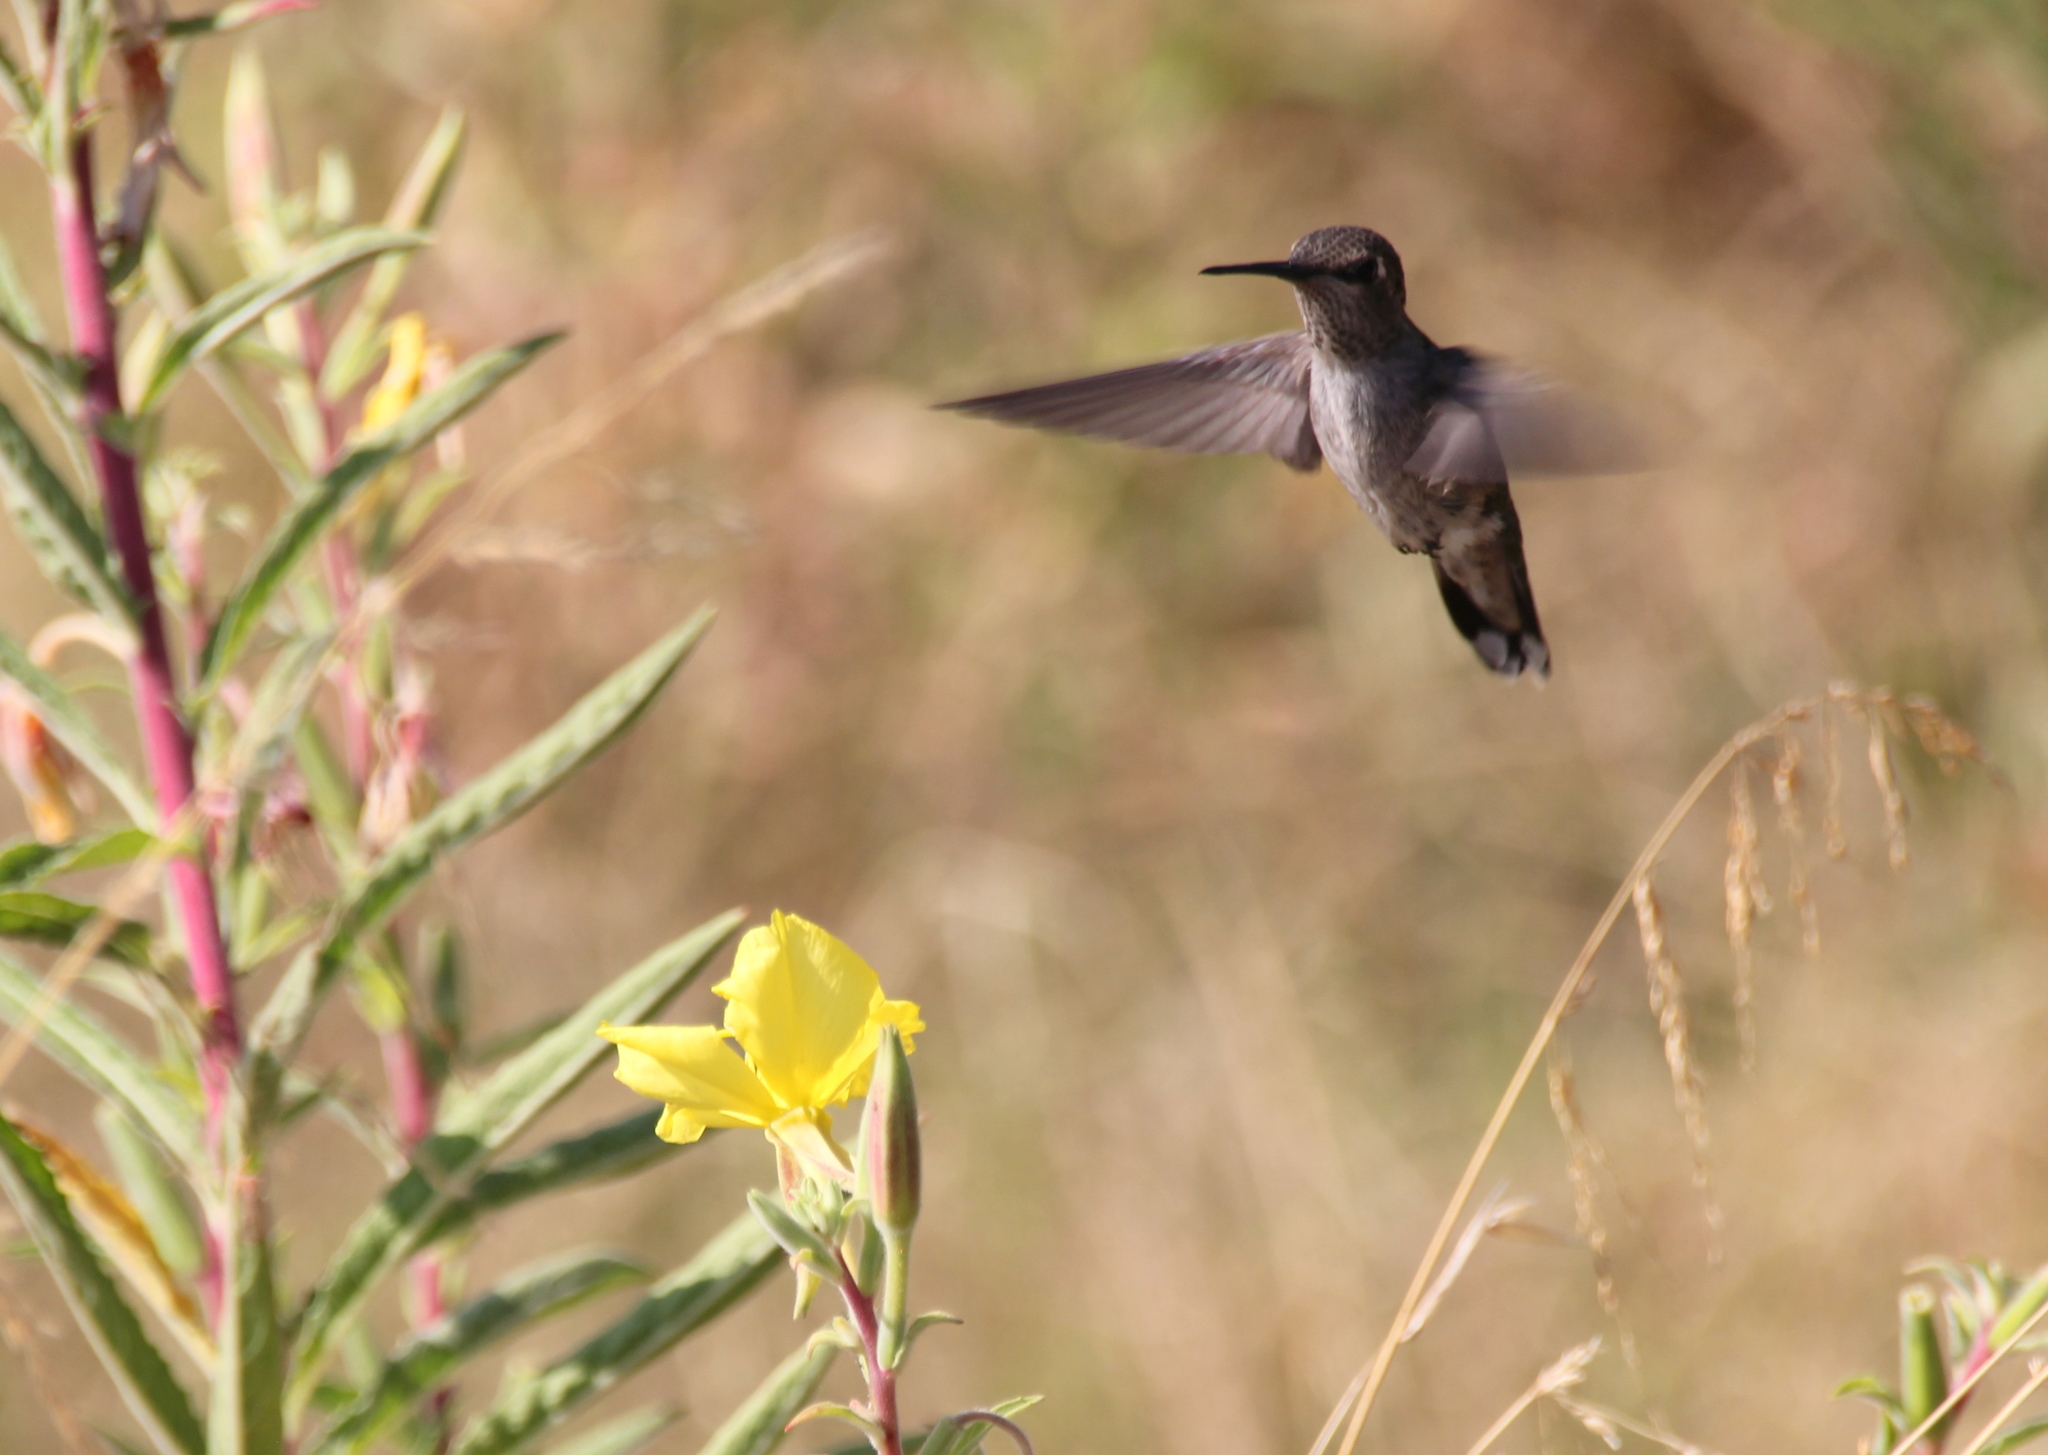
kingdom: Animalia
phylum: Chordata
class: Aves
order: Apodiformes
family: Trochilidae
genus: Calypte
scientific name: Calypte anna
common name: Anna's hummingbird
